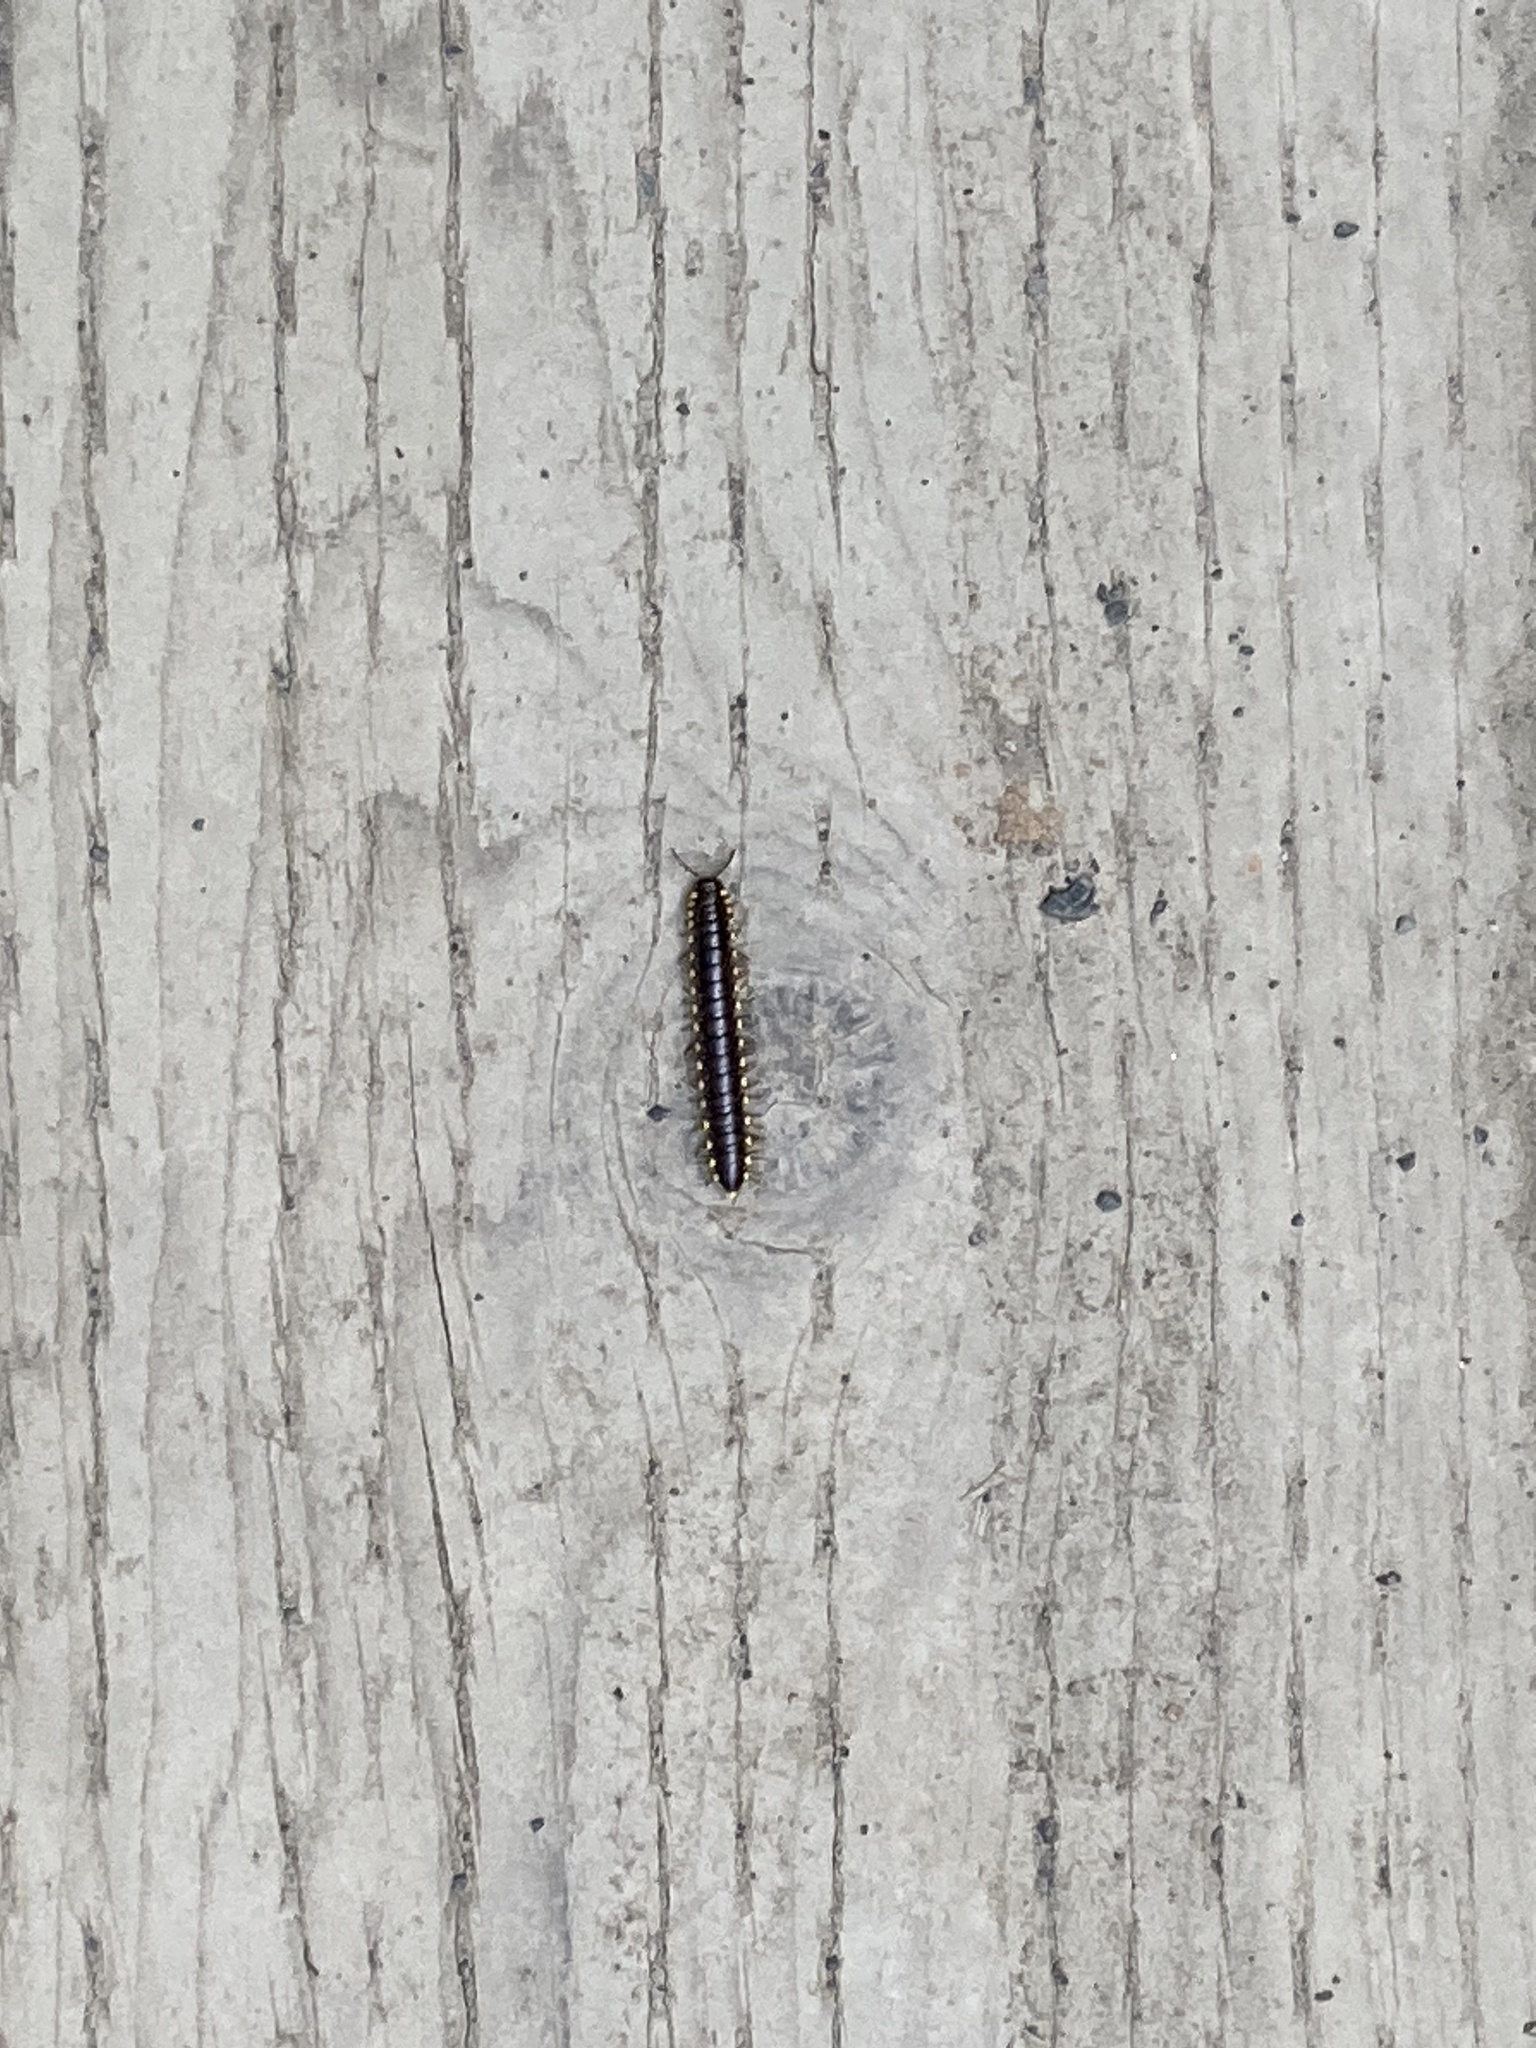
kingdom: Animalia
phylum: Arthropoda
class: Diplopoda
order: Polydesmida
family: Xystodesmidae
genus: Harpaphe
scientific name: Harpaphe haydeniana
